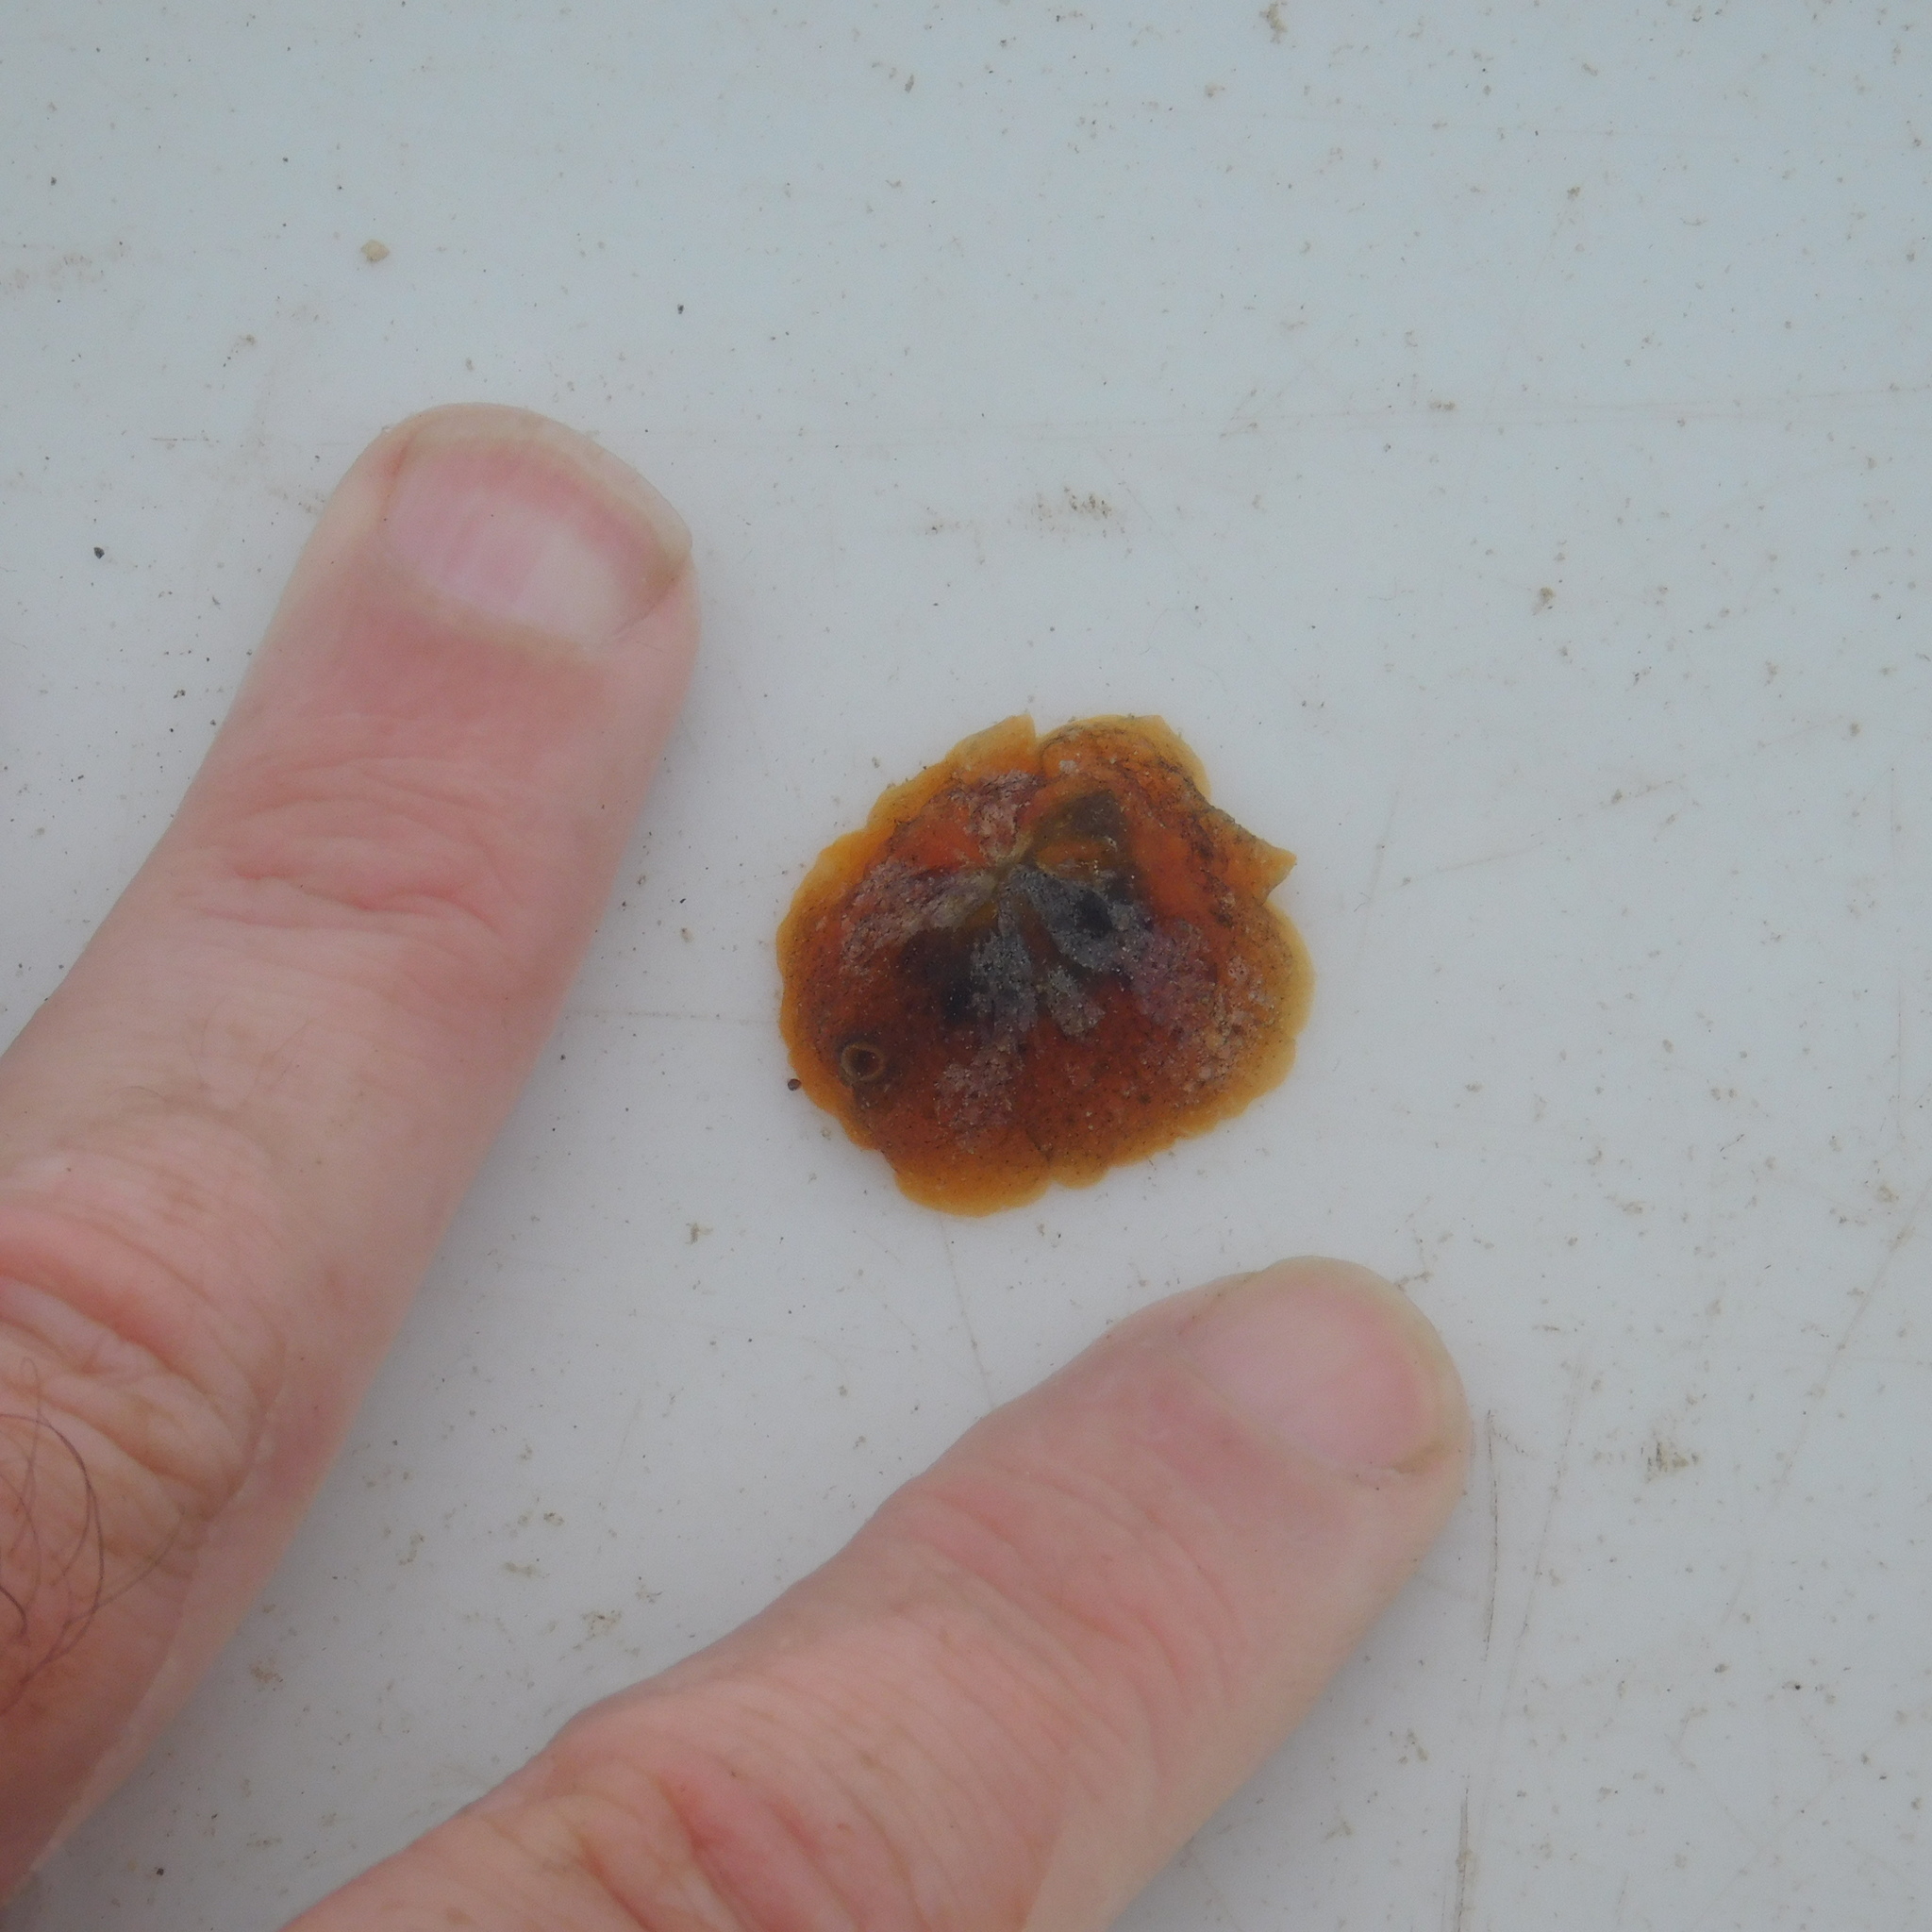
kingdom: Animalia
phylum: Mollusca
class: Gastropoda
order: Littorinimorpha
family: Velutinidae
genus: Lamellaria
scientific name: Lamellaria ophione
